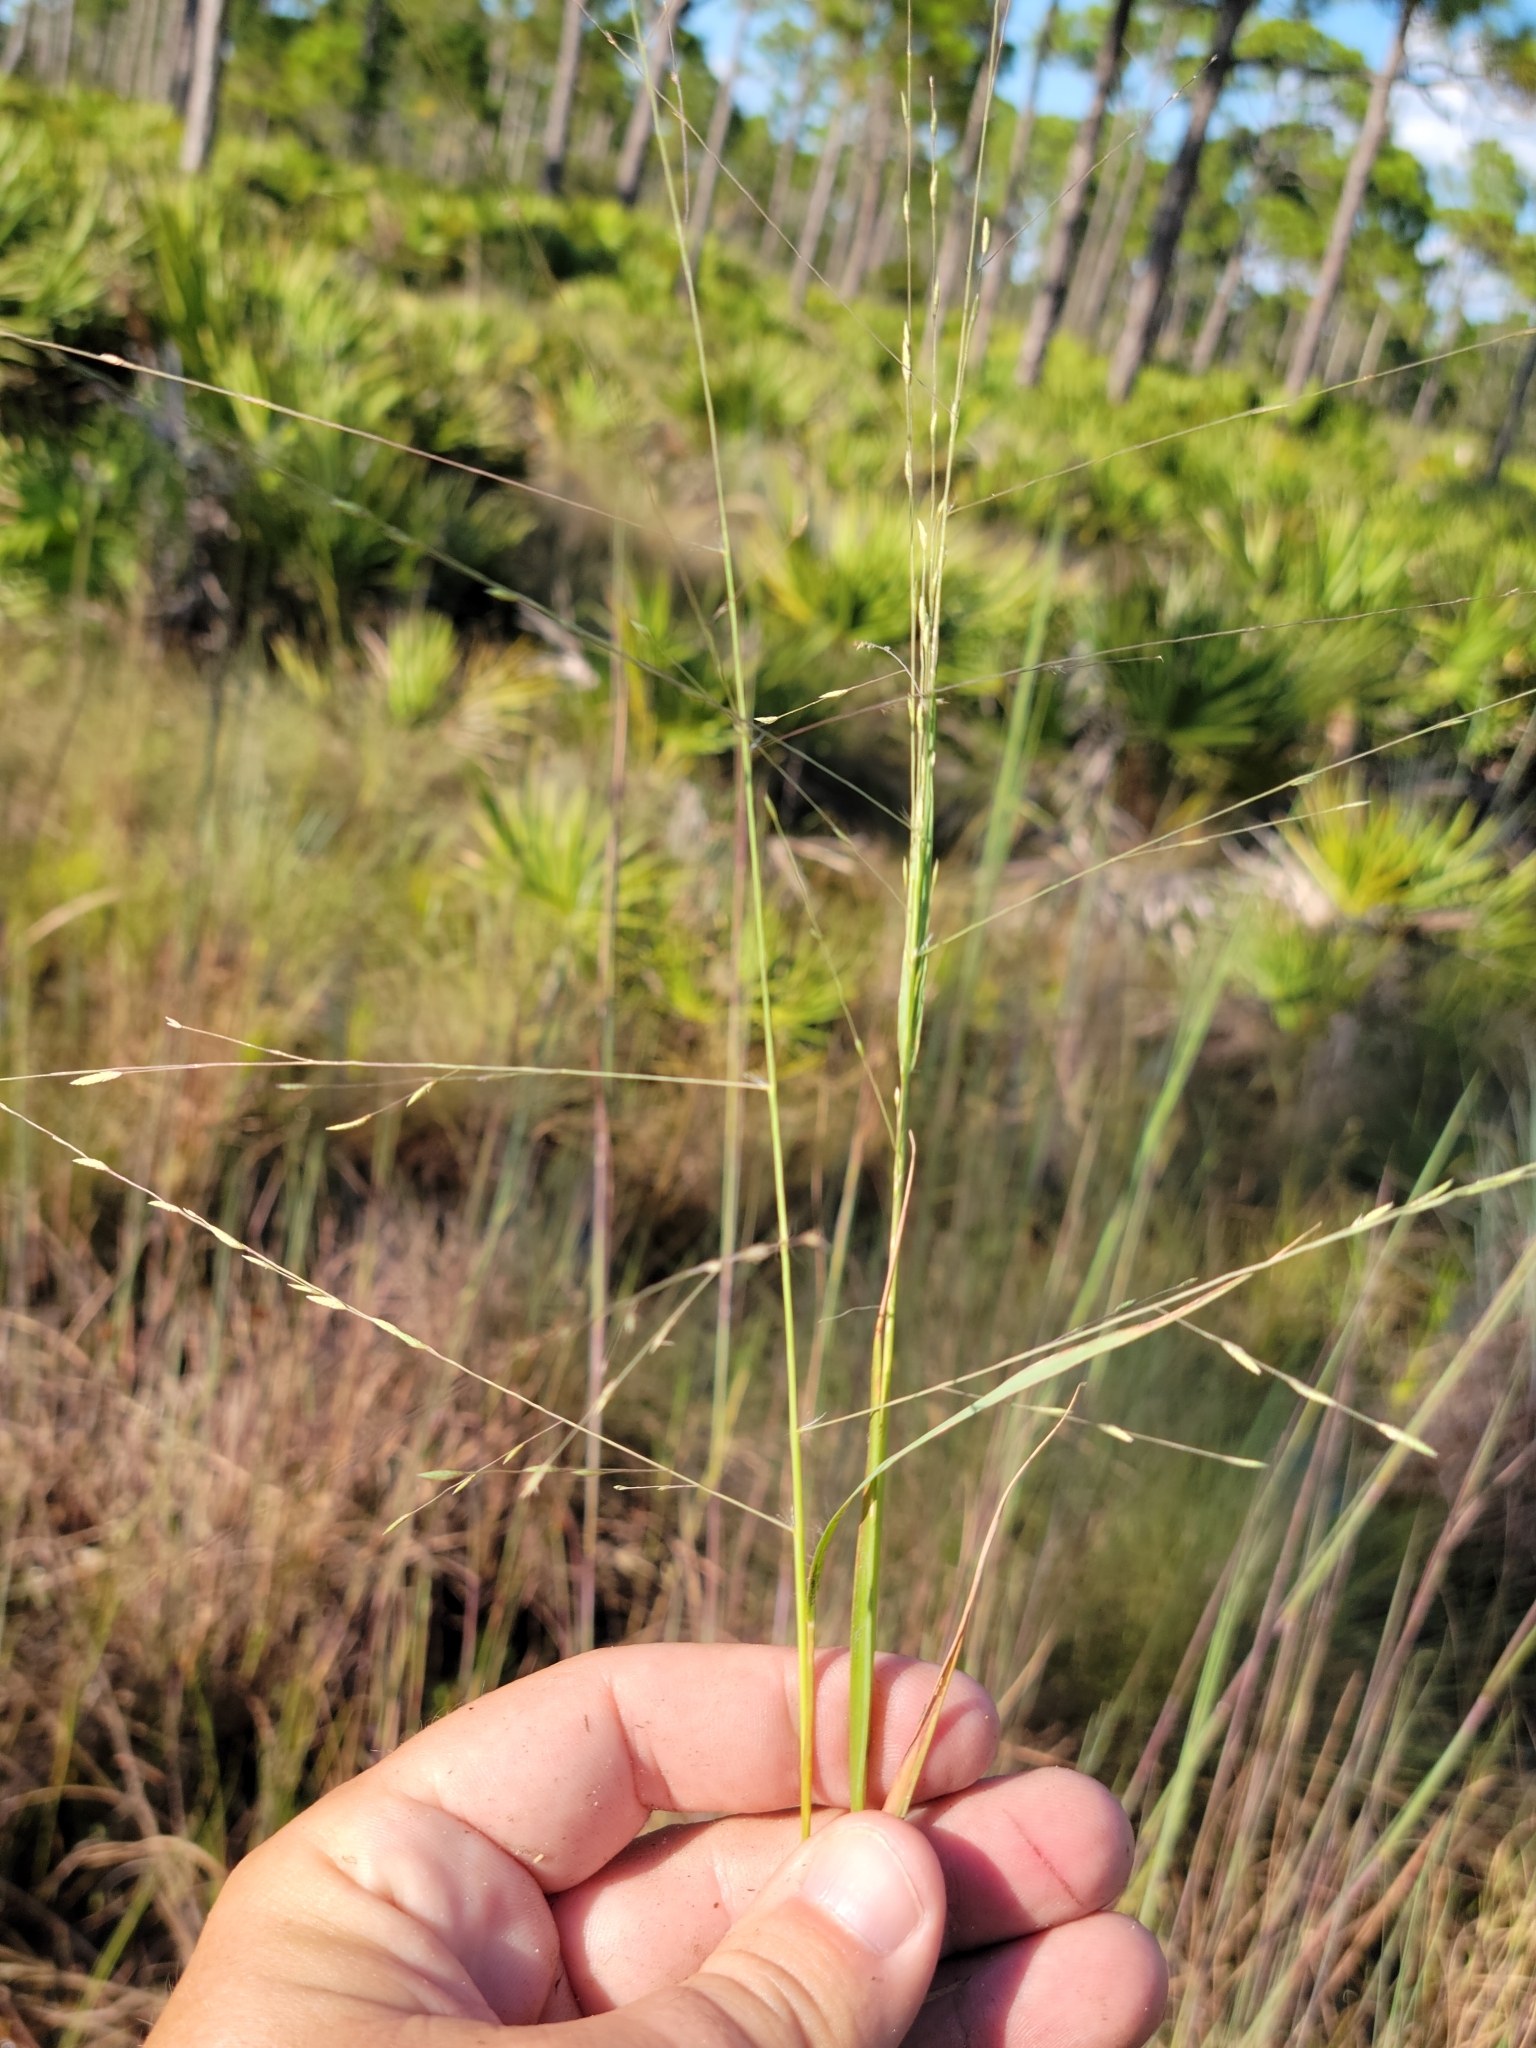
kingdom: Plantae
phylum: Tracheophyta
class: Liliopsida
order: Poales
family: Poaceae
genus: Eragrostis
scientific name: Eragrostis refracta
